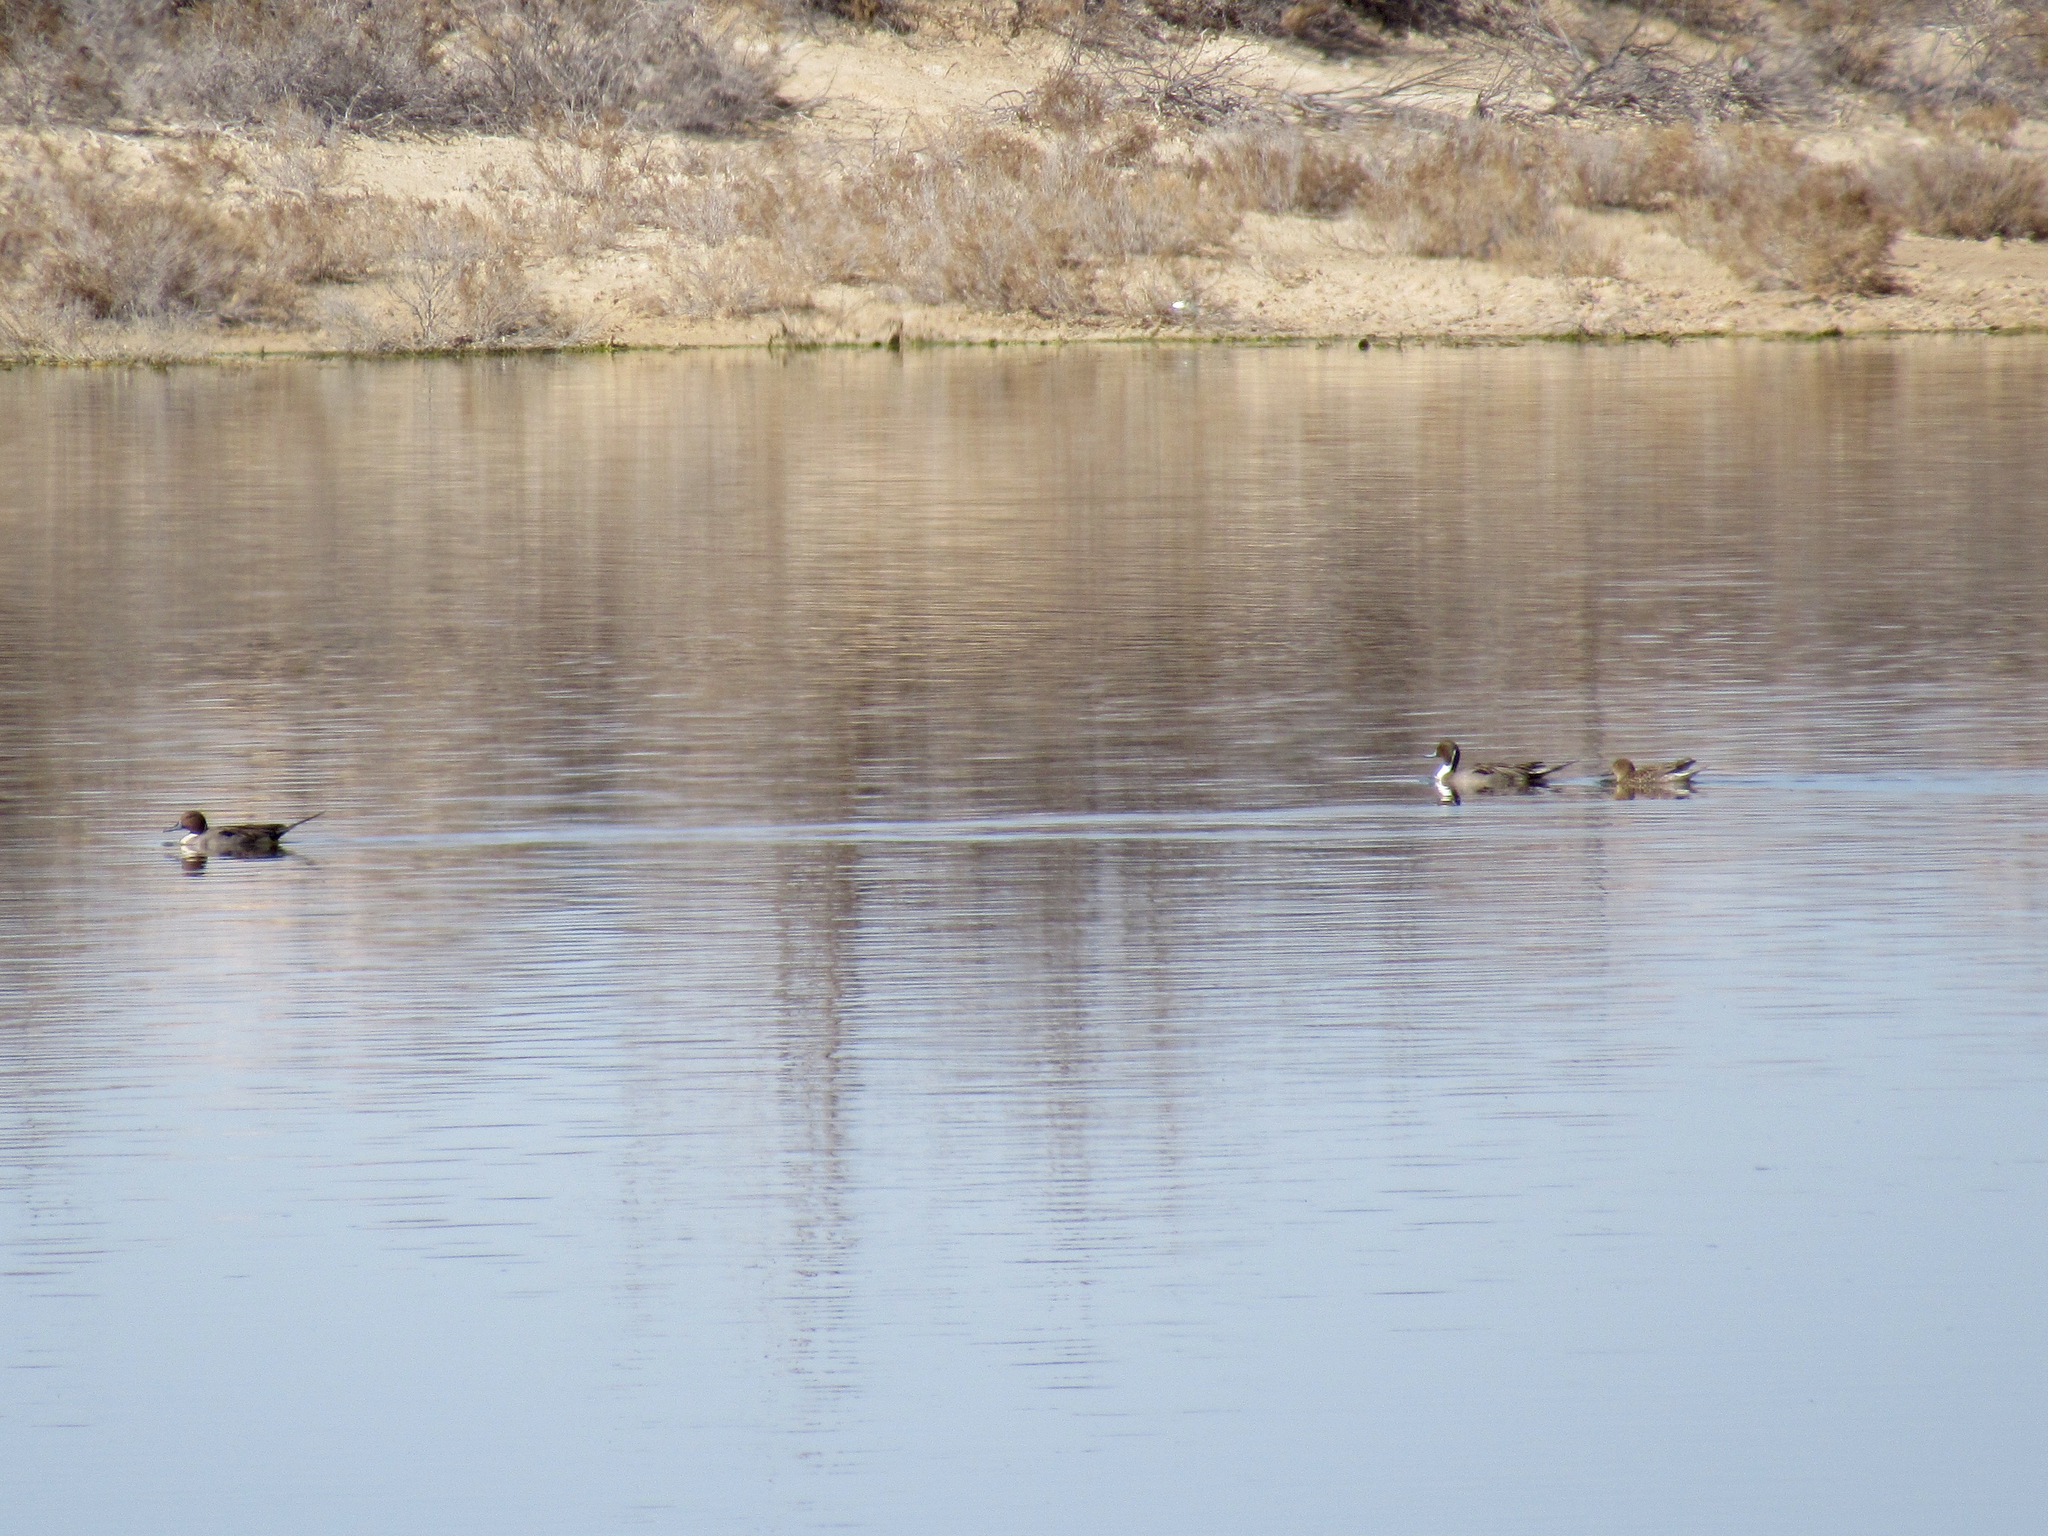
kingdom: Animalia
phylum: Chordata
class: Aves
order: Anseriformes
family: Anatidae
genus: Anas
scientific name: Anas acuta
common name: Northern pintail
